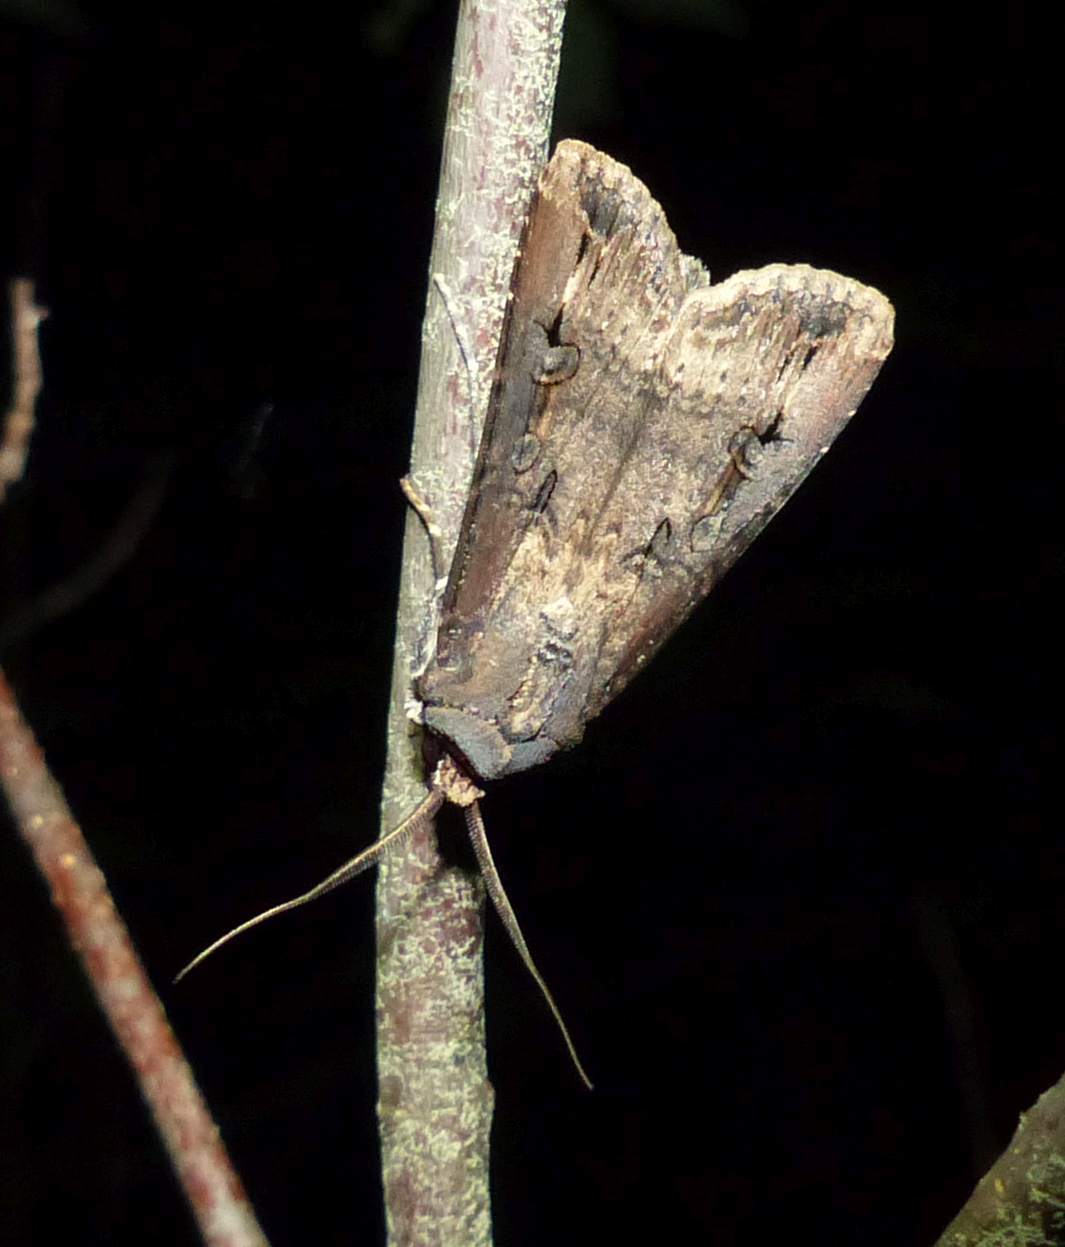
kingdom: Animalia
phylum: Arthropoda
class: Insecta
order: Lepidoptera
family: Noctuidae
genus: Agrotis
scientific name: Agrotis ipsilon
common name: Dark sword-grass
